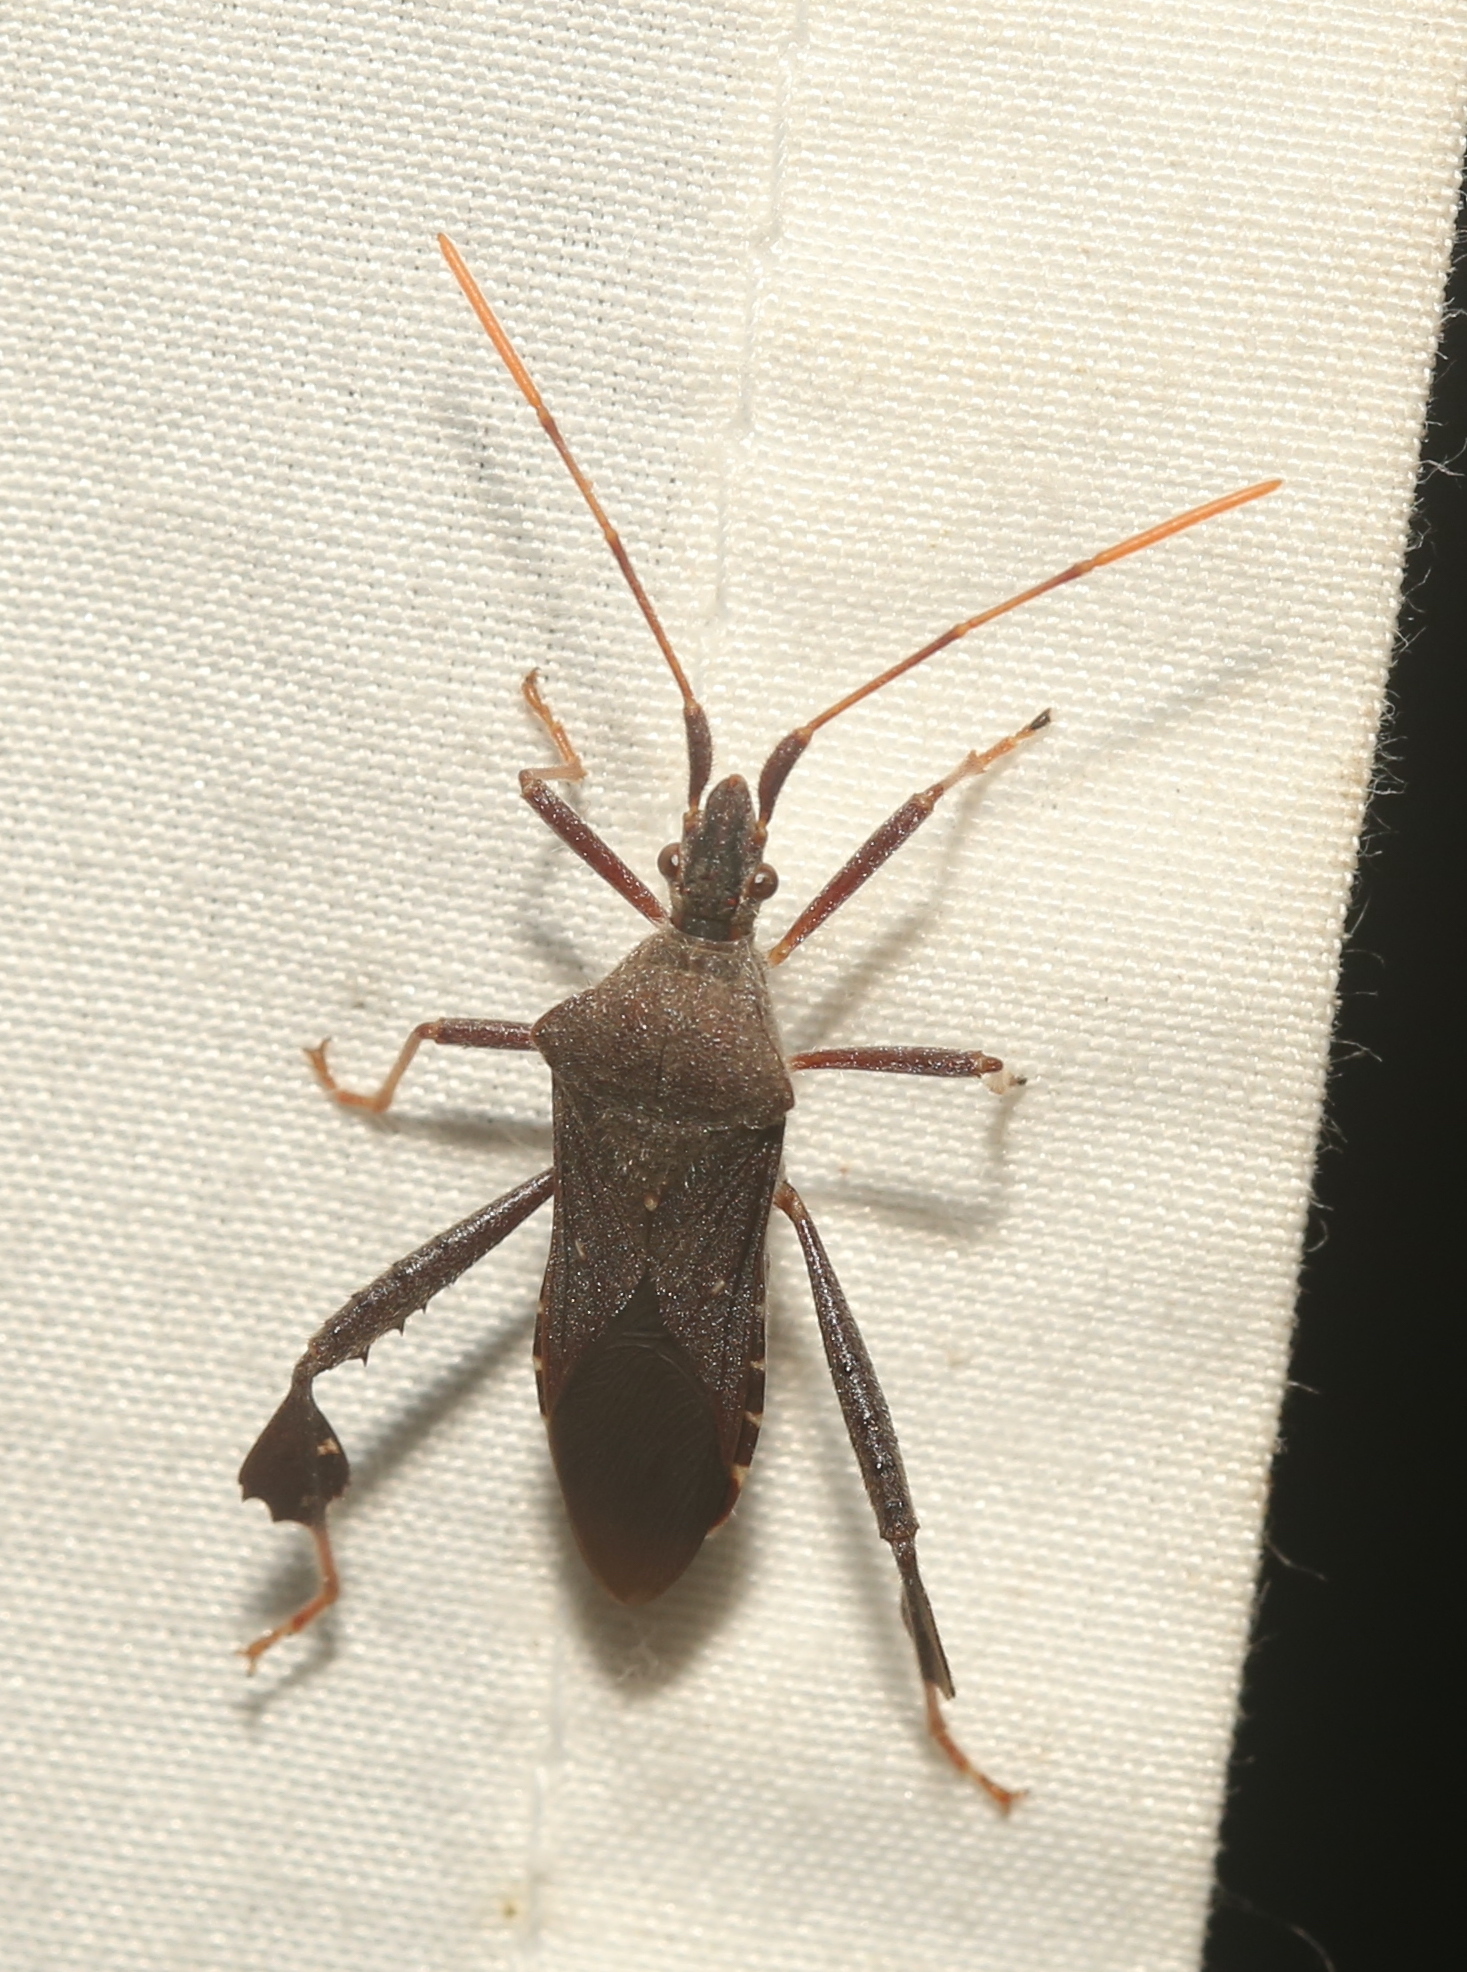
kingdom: Animalia
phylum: Arthropoda
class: Insecta
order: Hemiptera
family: Coreidae
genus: Leptoglossus
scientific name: Leptoglossus oppositus
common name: Northern leaf-footed bug
